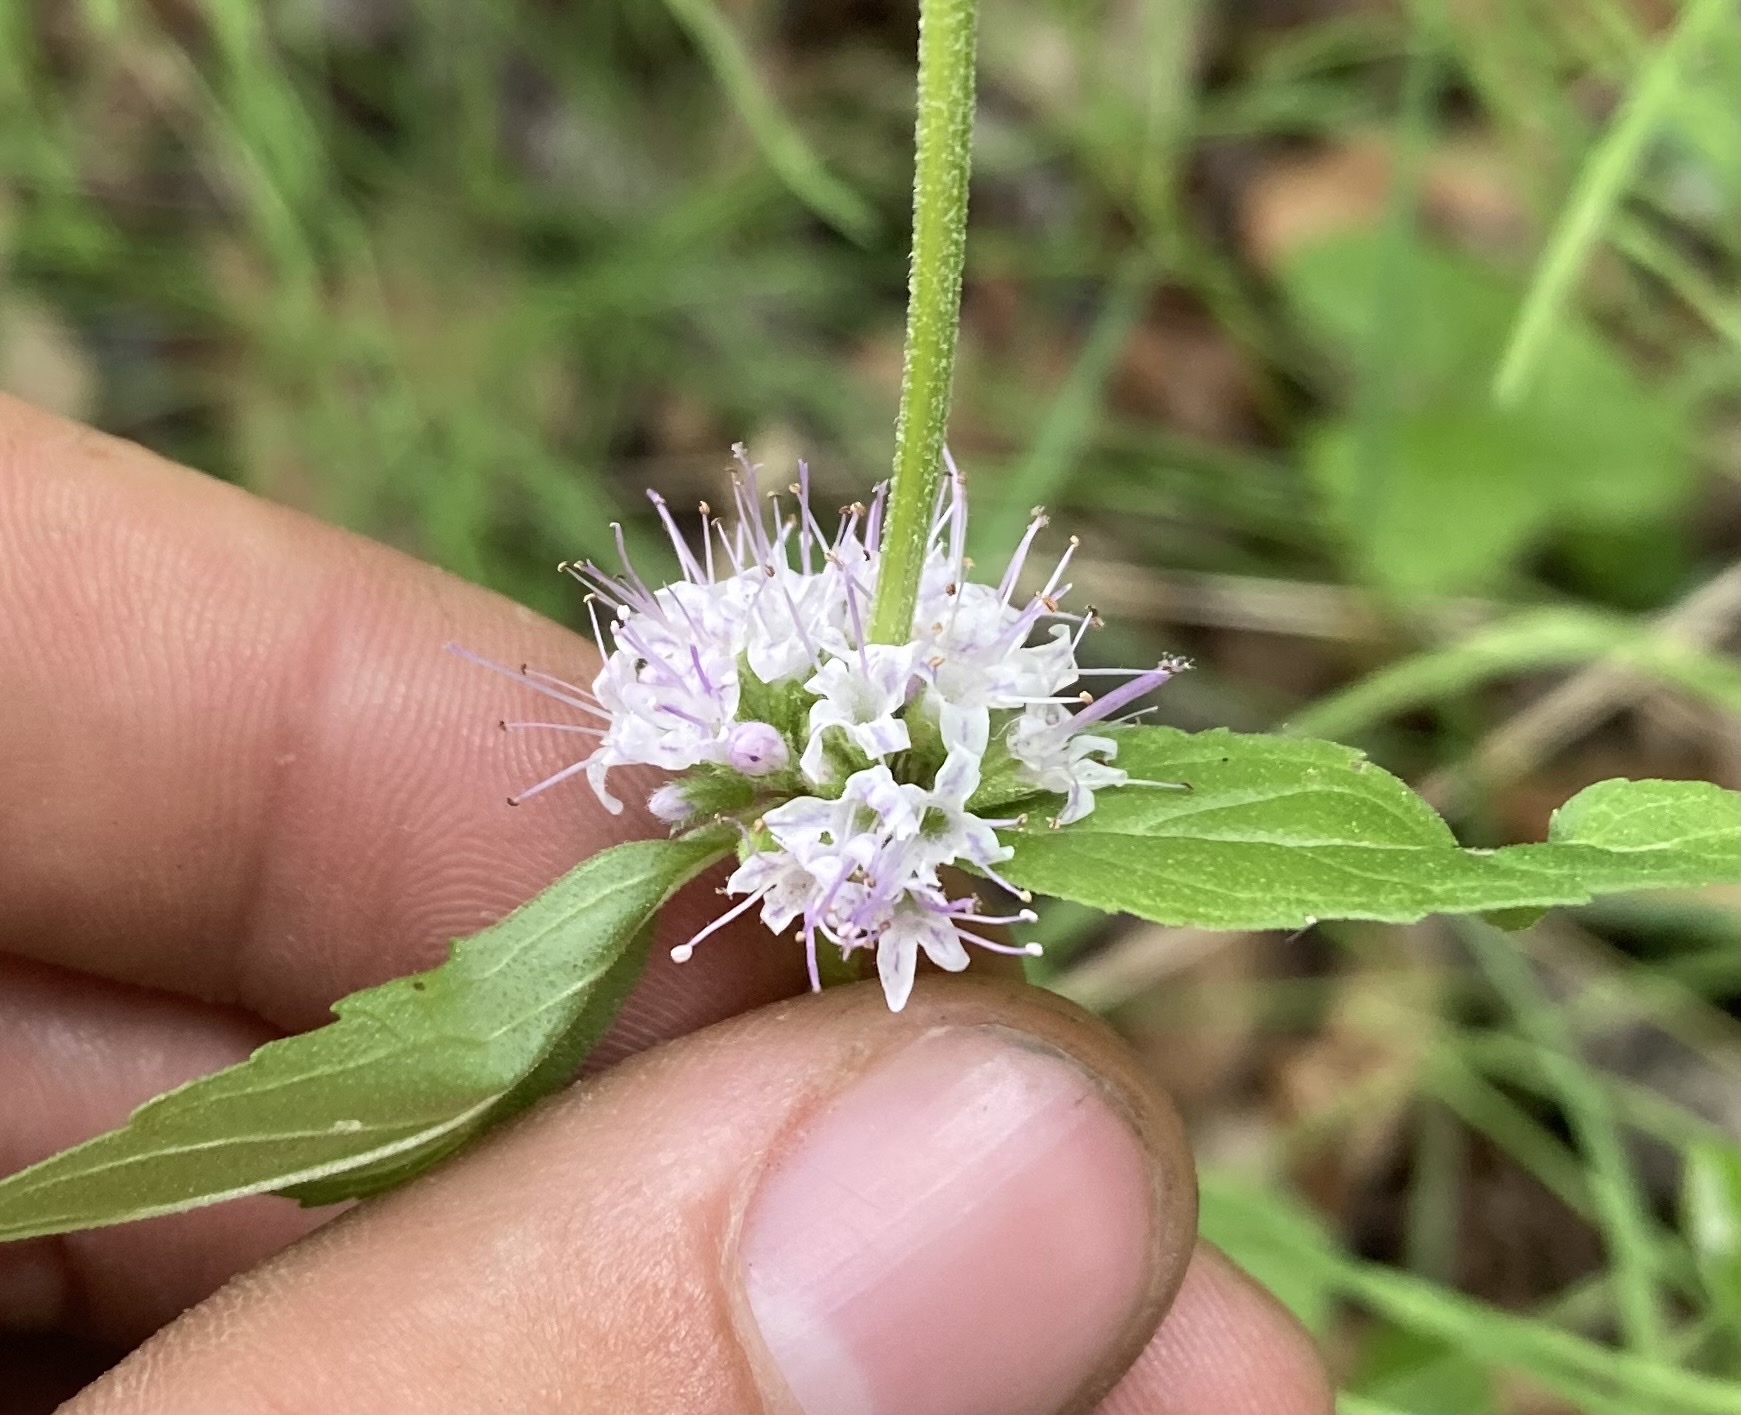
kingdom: Plantae
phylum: Tracheophyta
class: Magnoliopsida
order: Lamiales
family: Lamiaceae
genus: Mentha
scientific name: Mentha canadensis
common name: American corn mint
